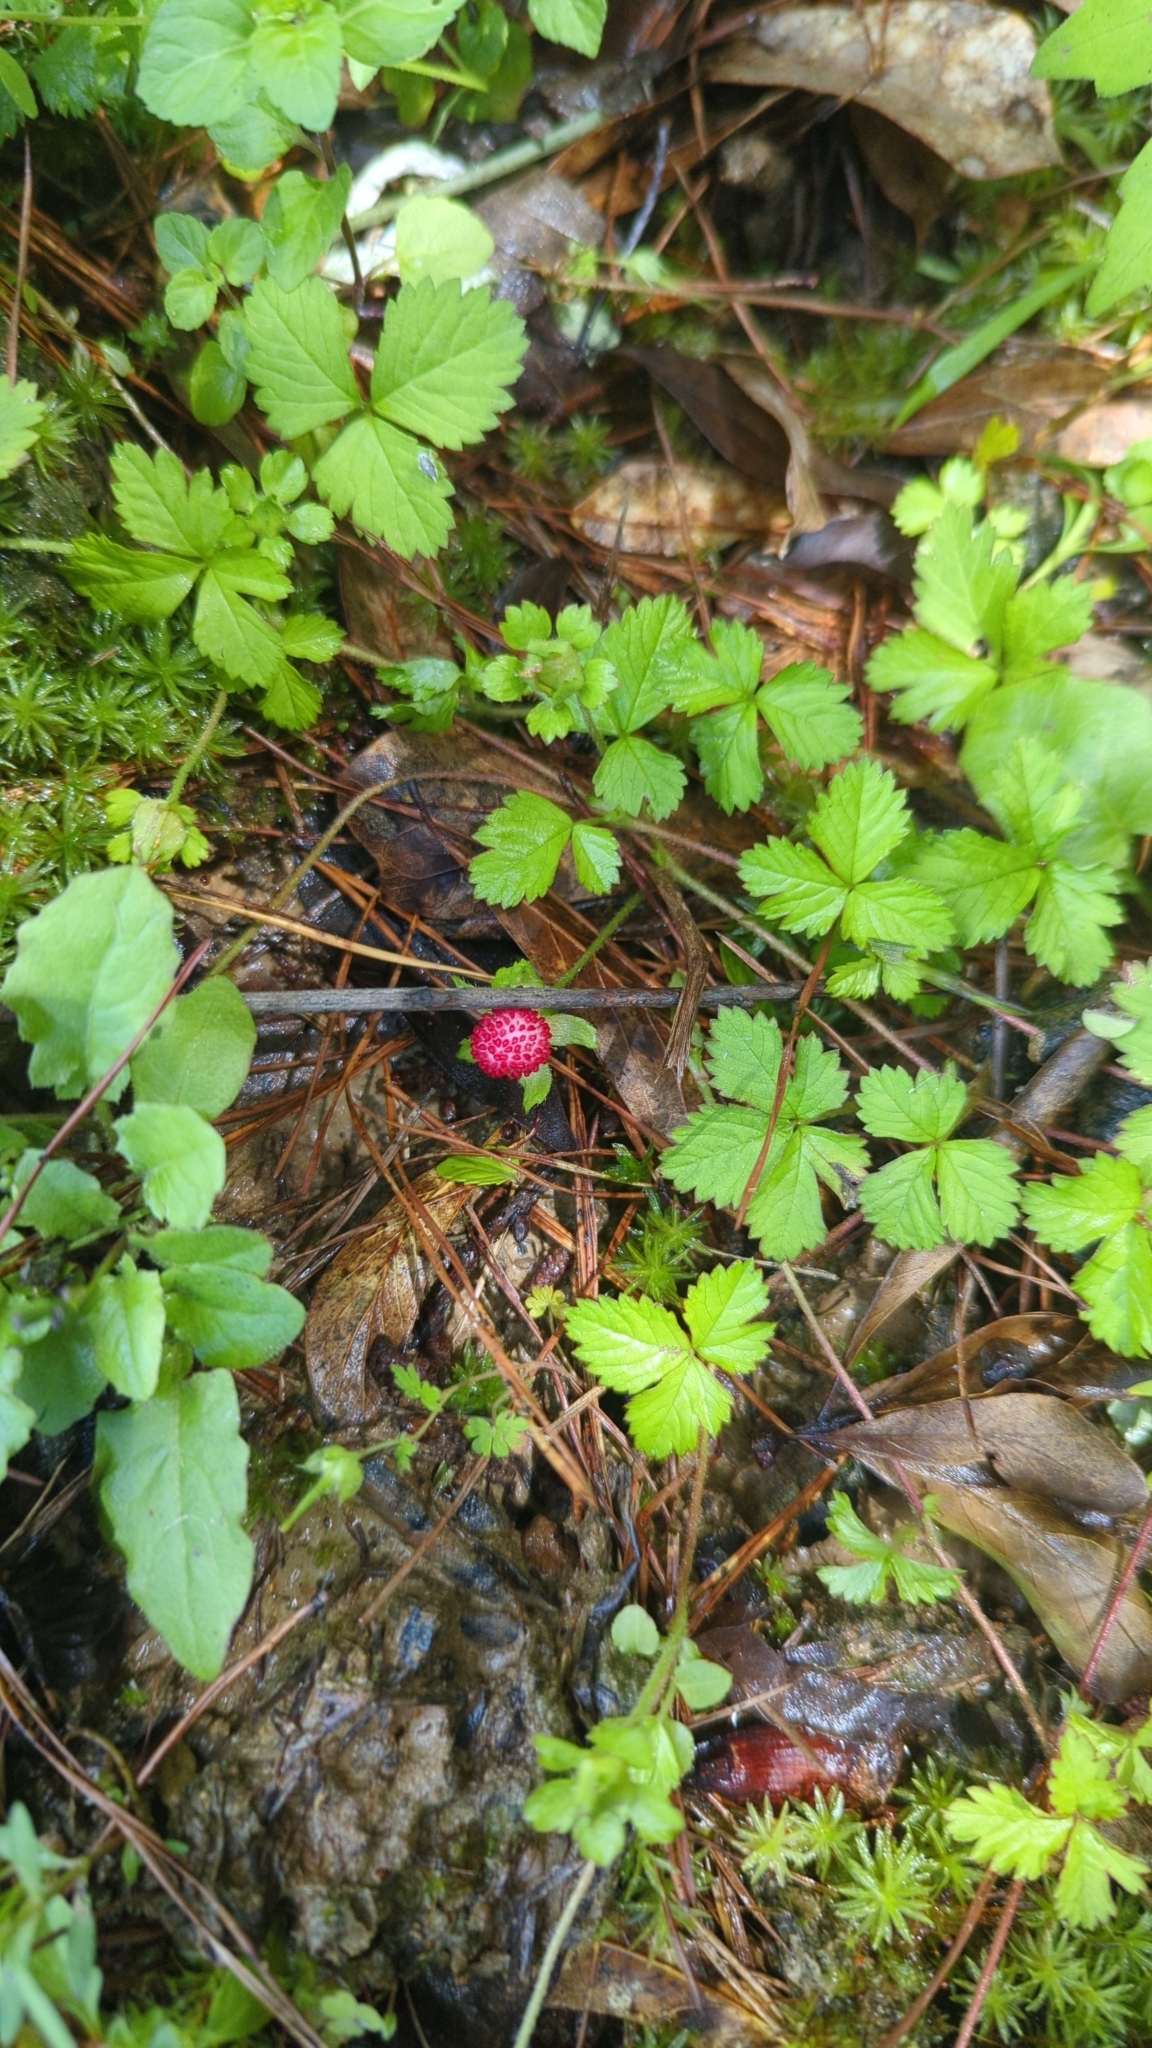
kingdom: Plantae
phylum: Tracheophyta
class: Magnoliopsida
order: Rosales
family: Rosaceae
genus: Potentilla
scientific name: Potentilla indica
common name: Yellow-flowered strawberry
